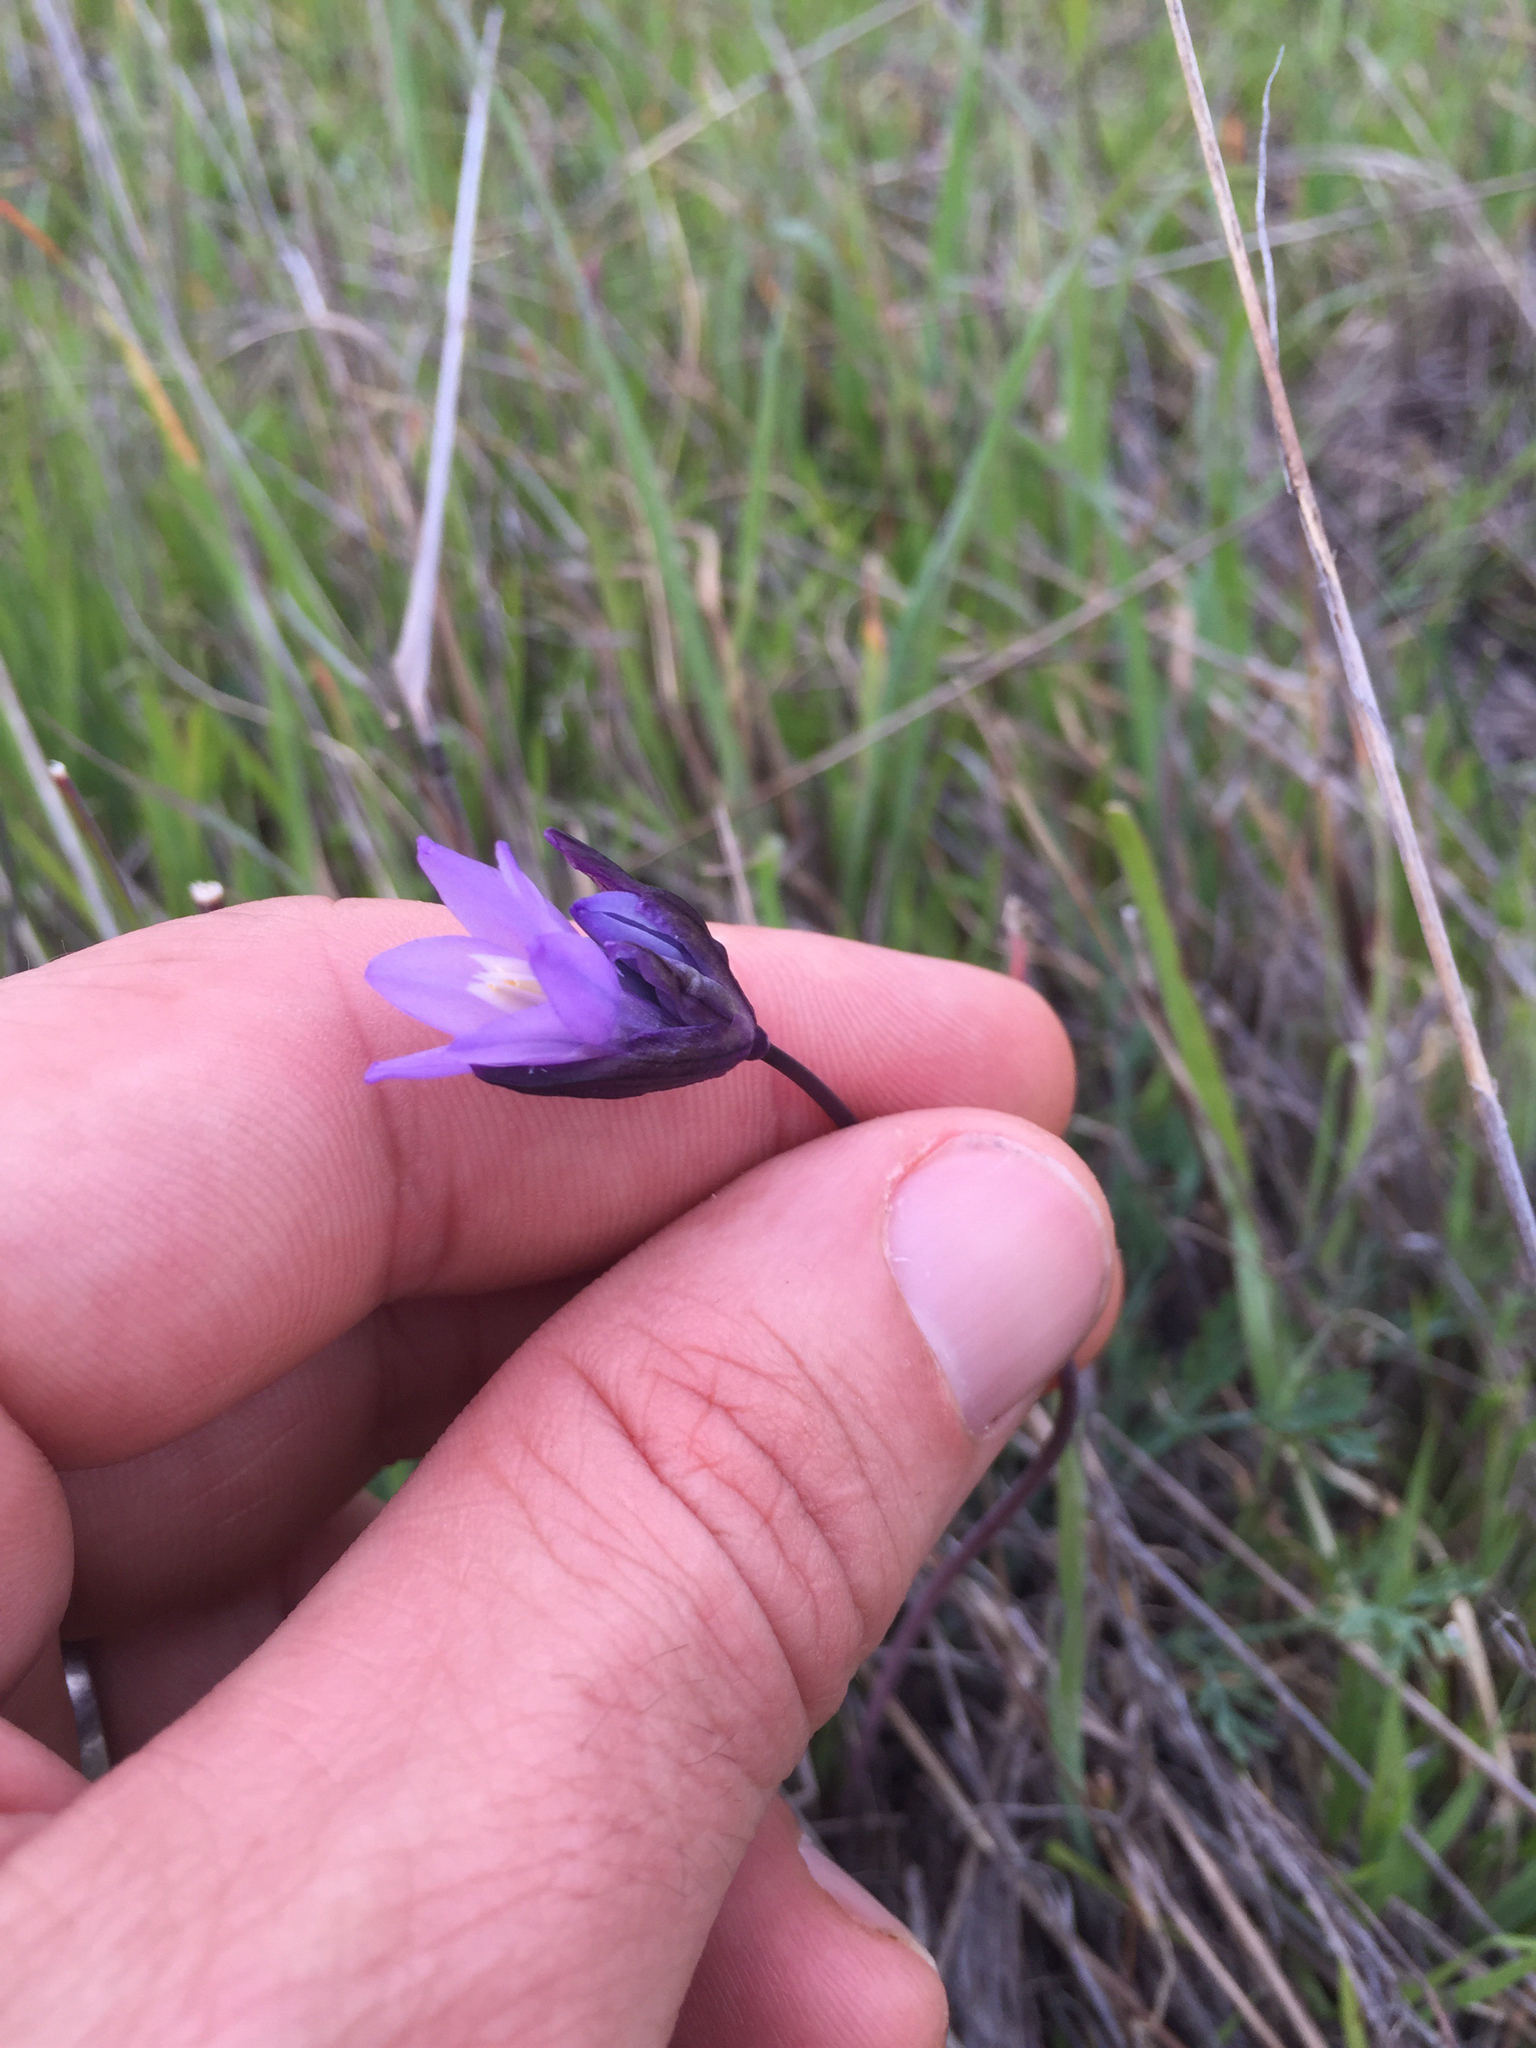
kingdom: Plantae
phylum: Tracheophyta
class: Liliopsida
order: Asparagales
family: Asparagaceae
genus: Dipterostemon
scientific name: Dipterostemon capitatus
